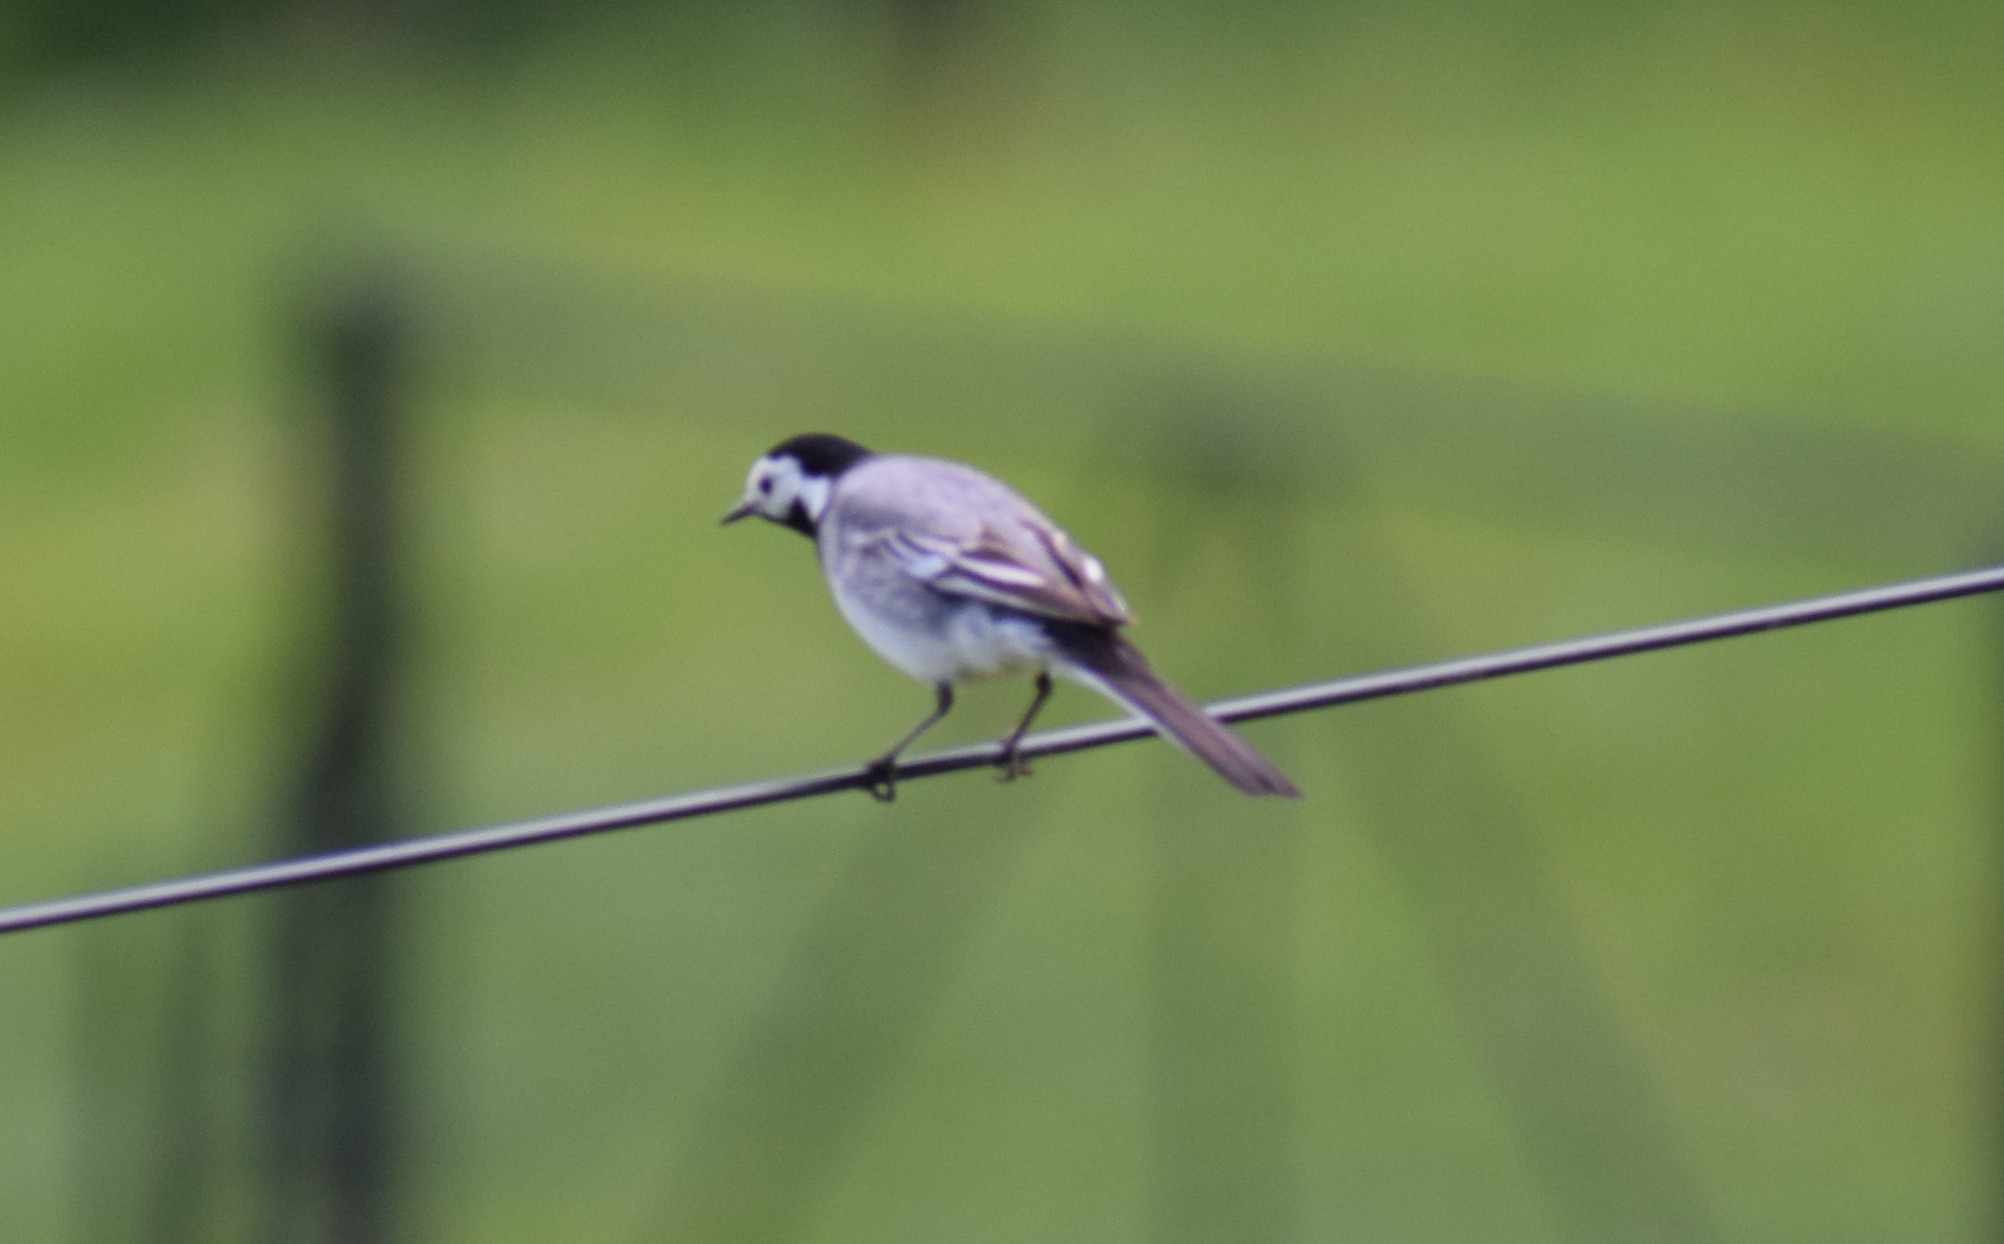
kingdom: Animalia
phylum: Chordata
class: Aves
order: Passeriformes
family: Motacillidae
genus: Motacilla
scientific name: Motacilla alba
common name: White wagtail
